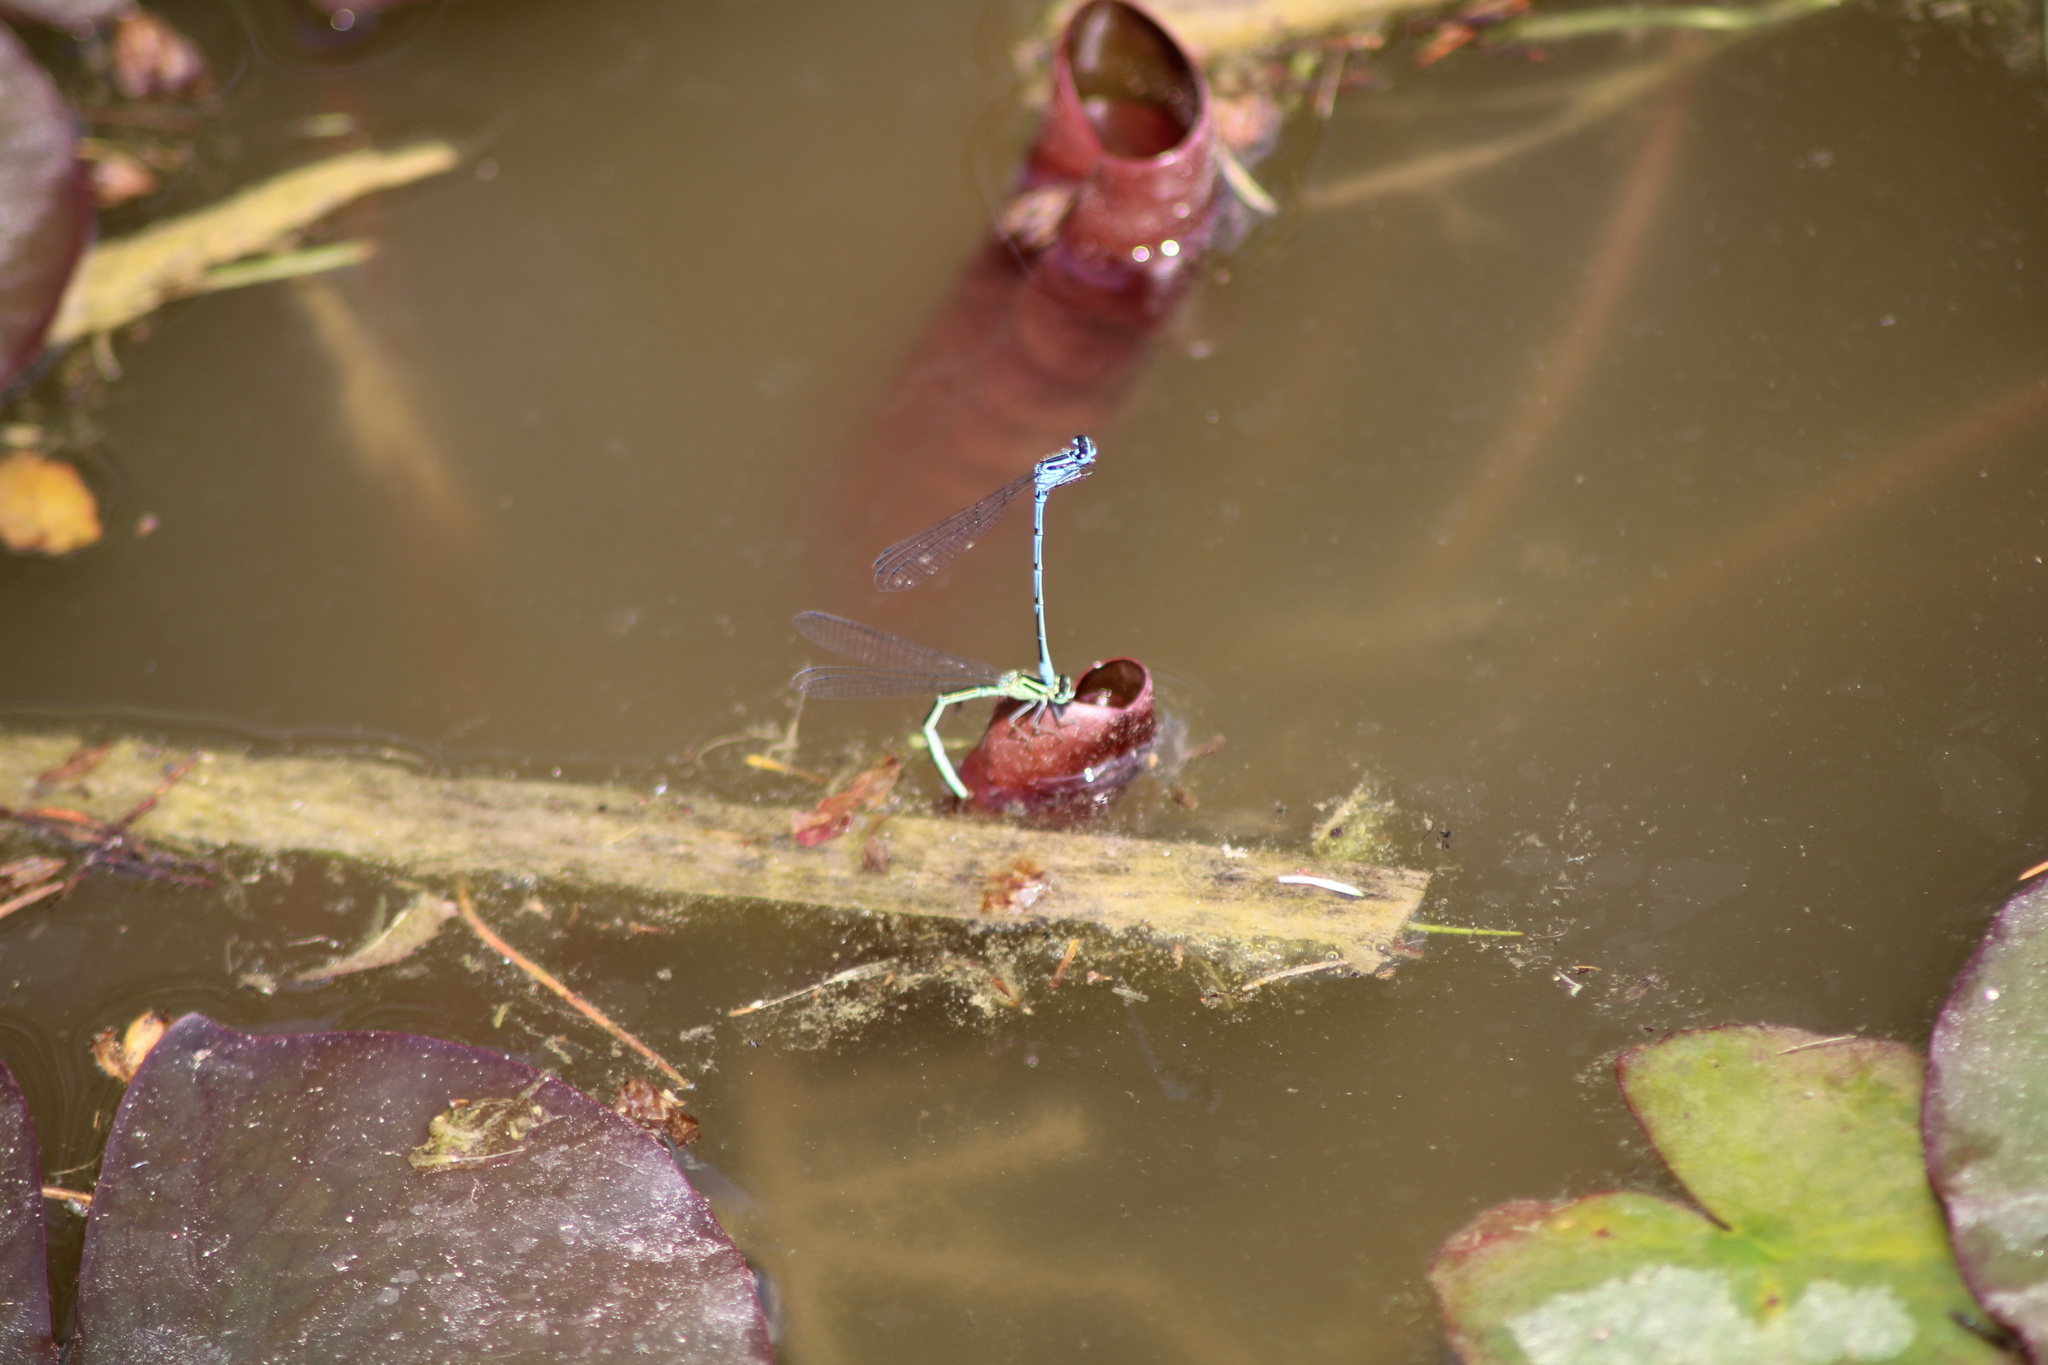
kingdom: Animalia
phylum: Arthropoda
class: Insecta
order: Odonata
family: Coenagrionidae
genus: Coenagrion
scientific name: Coenagrion puella
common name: Azure damselfly
